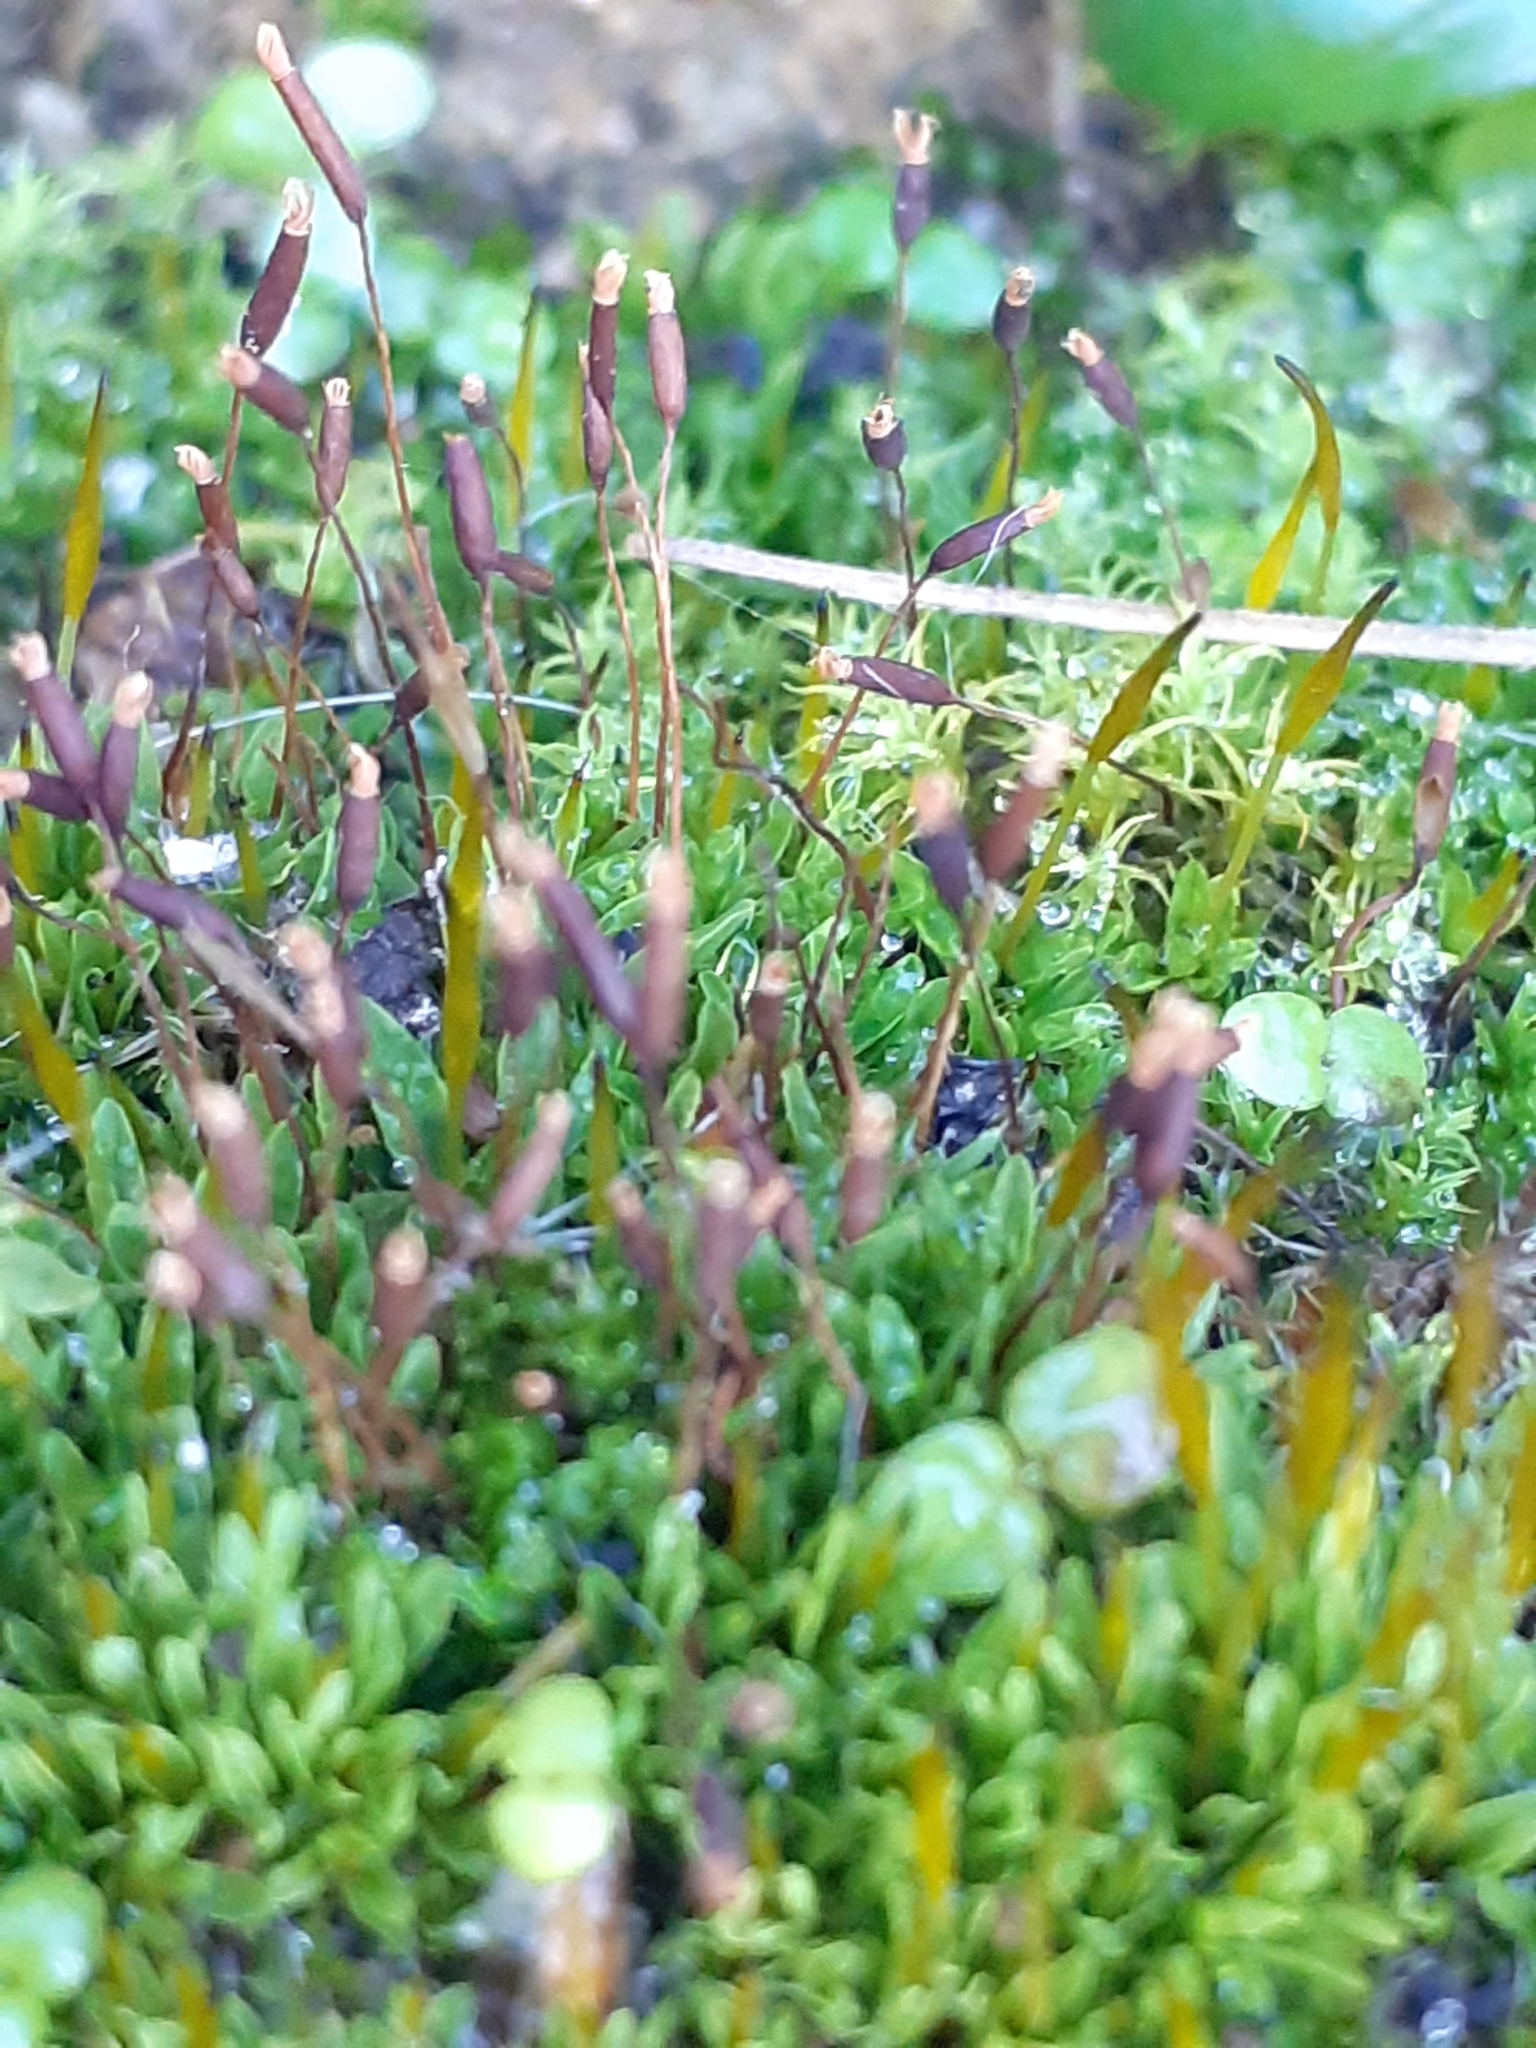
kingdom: Plantae
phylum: Bryophyta
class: Bryopsida
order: Pottiales
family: Pottiaceae
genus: Tortula
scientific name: Tortula muralis
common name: Wall screw-moss
